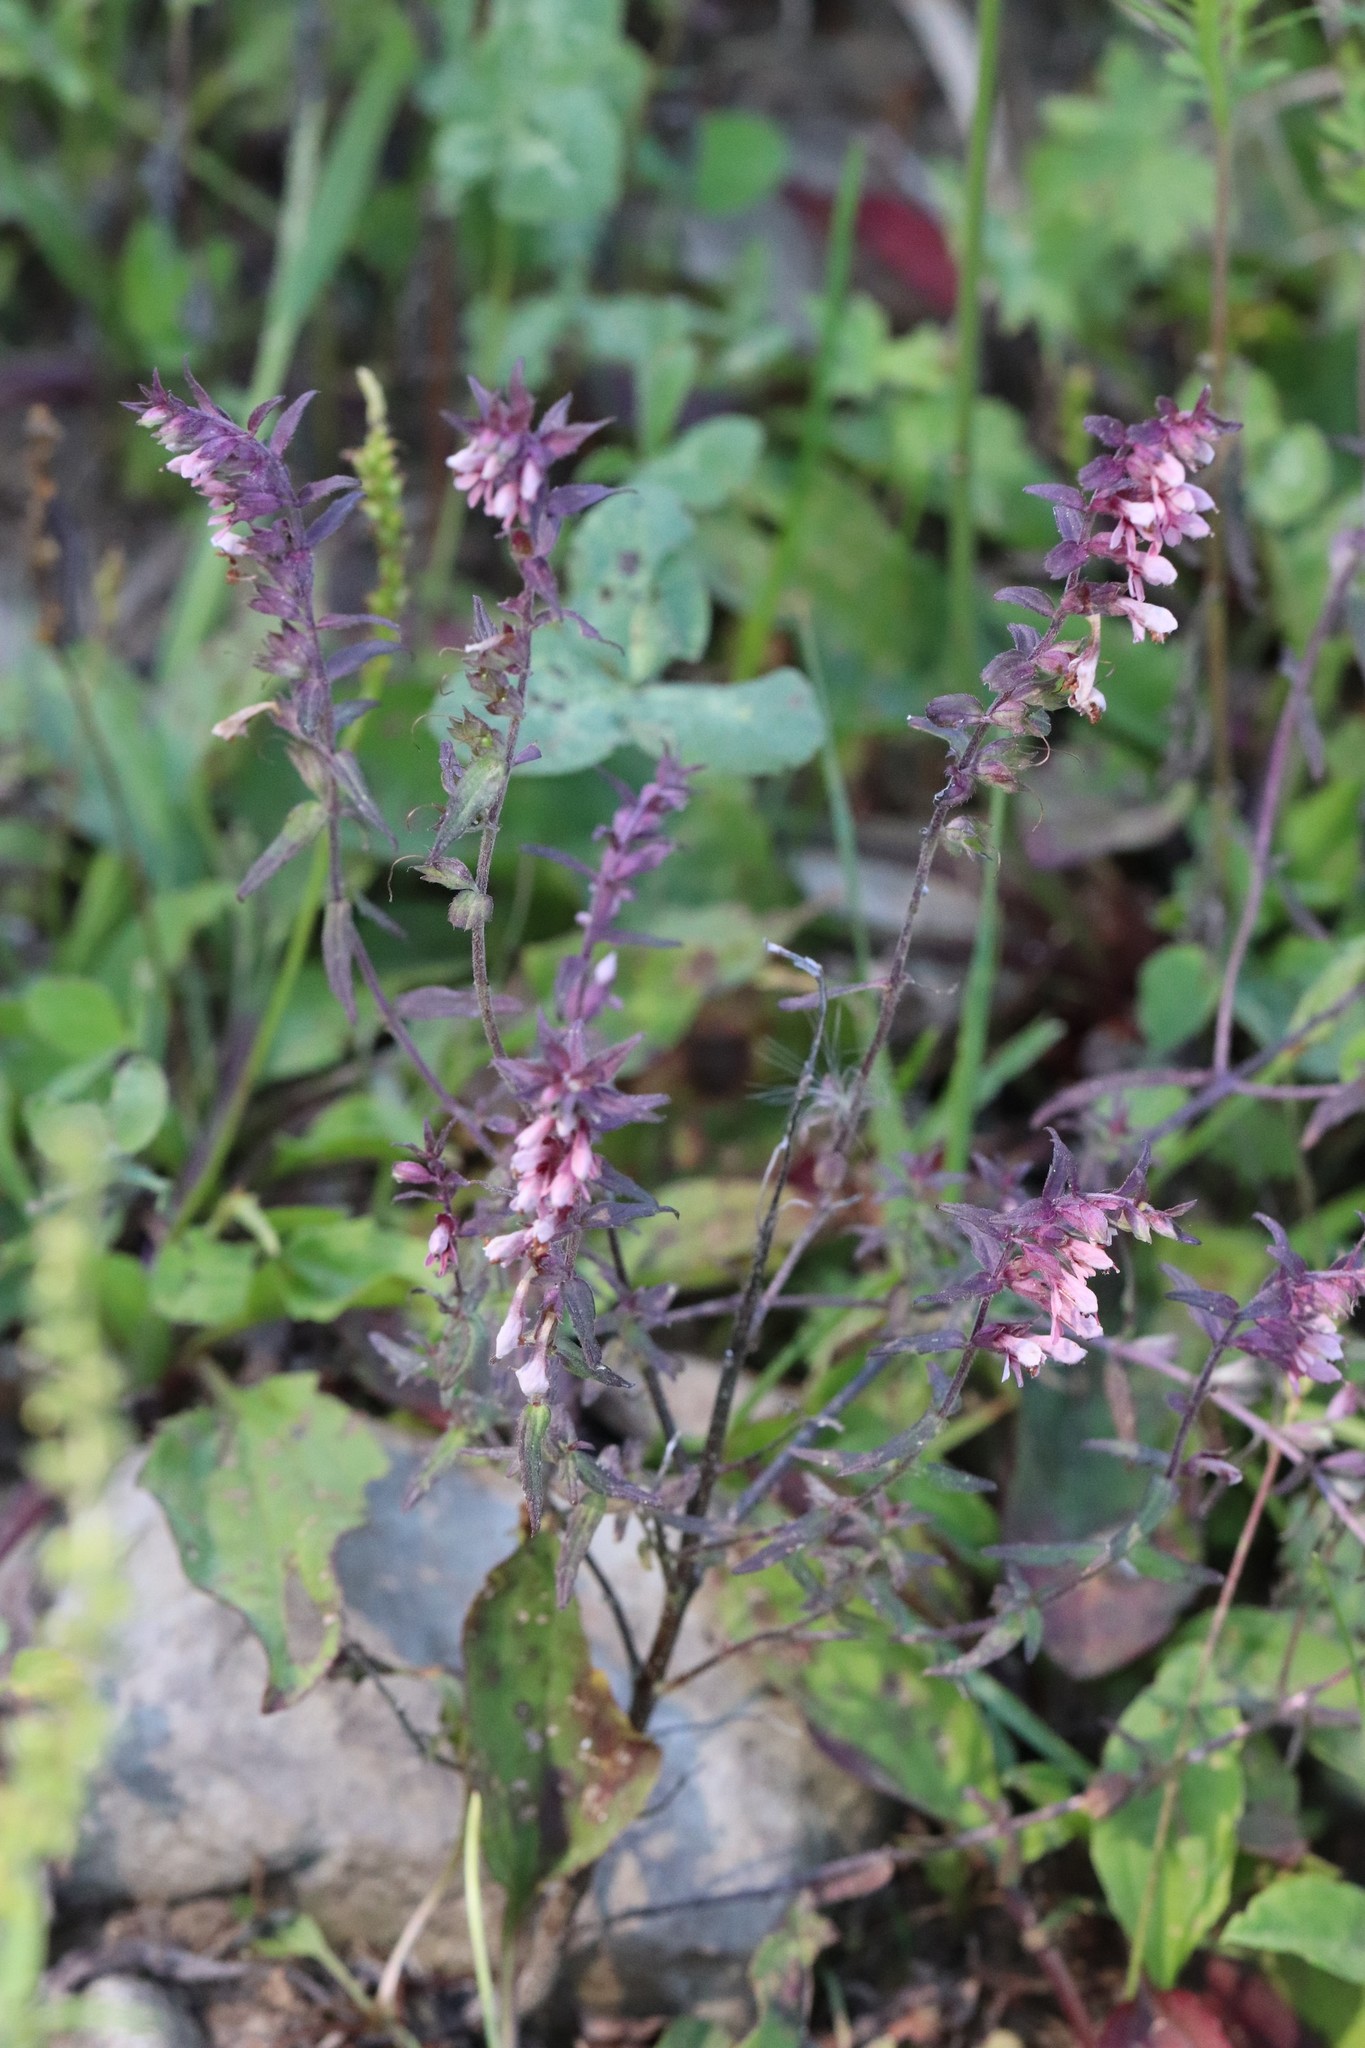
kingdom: Plantae
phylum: Tracheophyta
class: Magnoliopsida
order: Lamiales
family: Orobanchaceae
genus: Odontites
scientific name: Odontites vulgaris
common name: Broomrape
